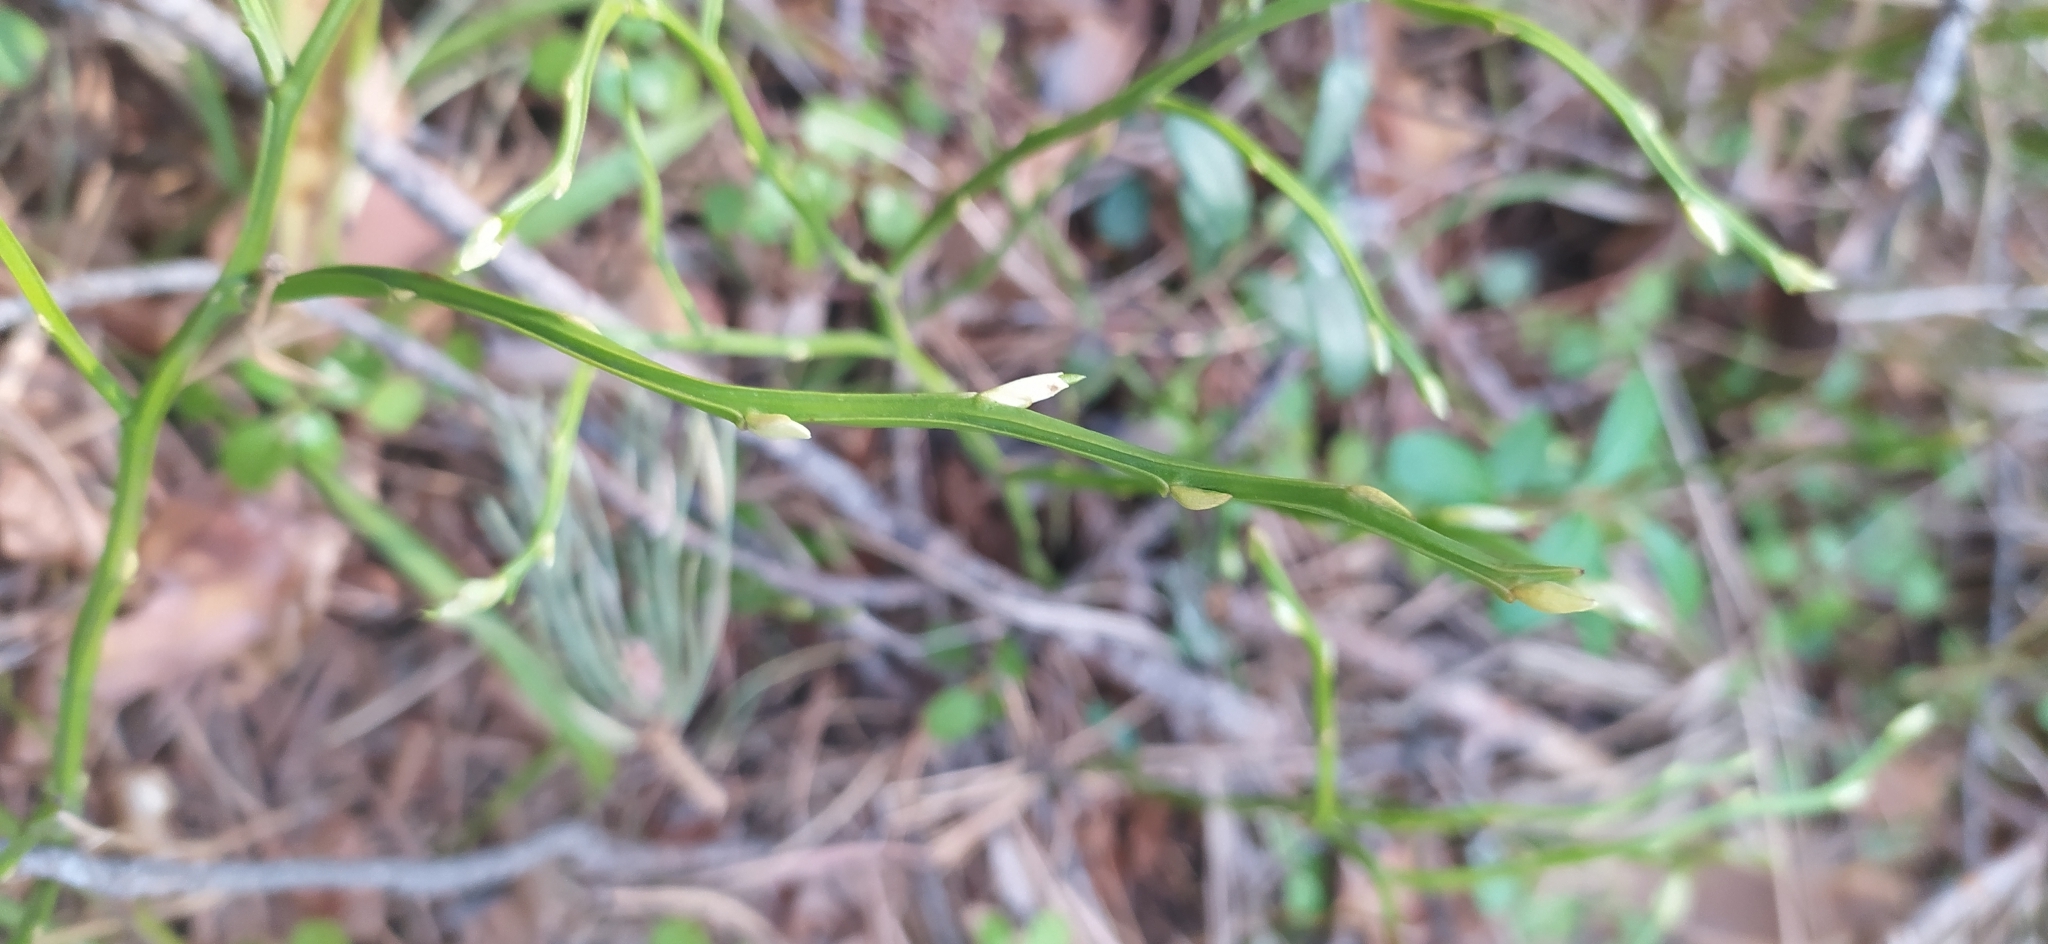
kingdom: Plantae
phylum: Tracheophyta
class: Magnoliopsida
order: Ericales
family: Ericaceae
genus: Vaccinium
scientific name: Vaccinium myrtillus
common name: Bilberry
